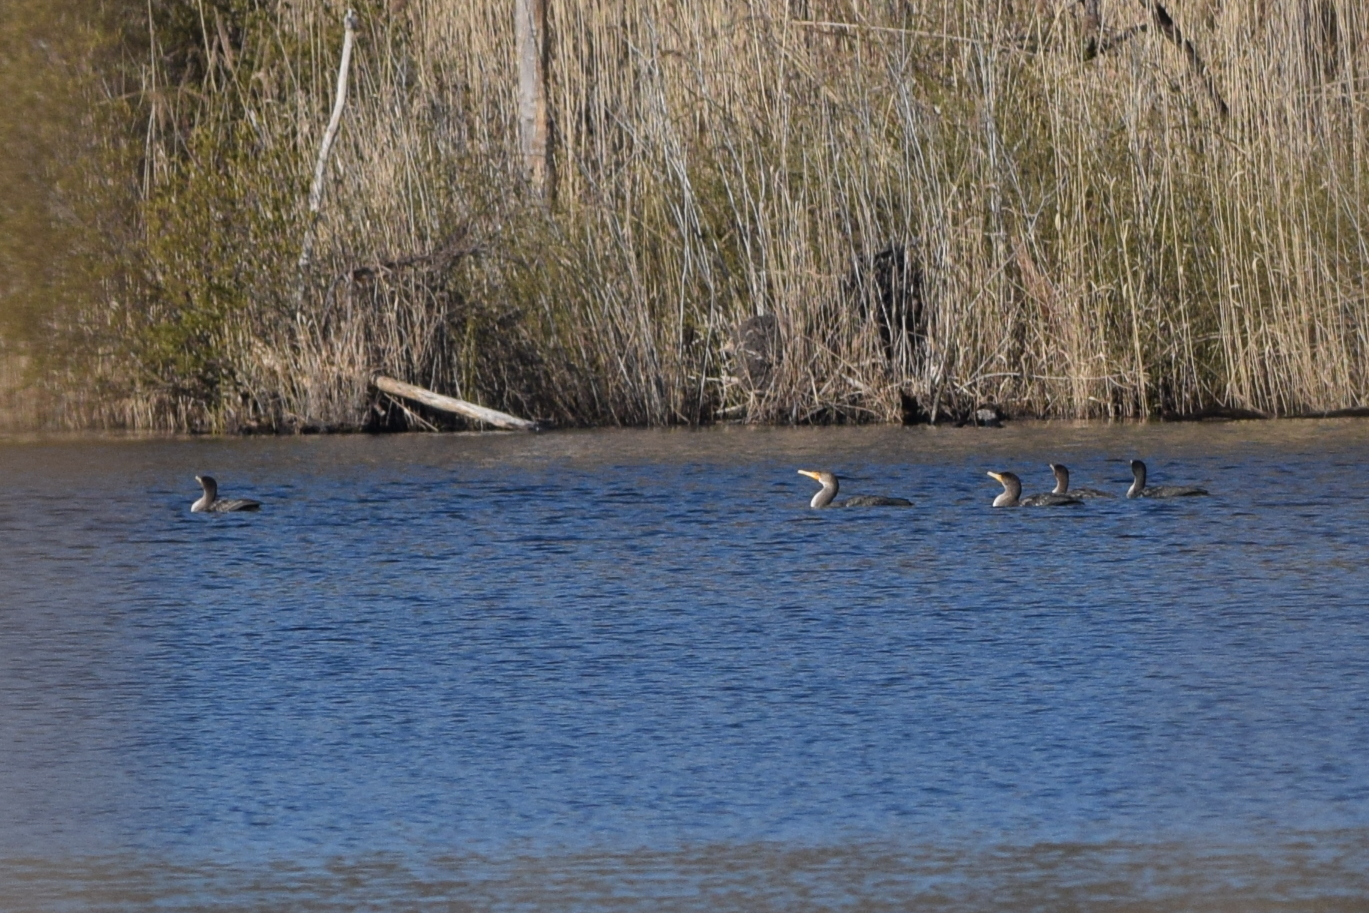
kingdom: Animalia
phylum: Chordata
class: Aves
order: Suliformes
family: Phalacrocoracidae
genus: Phalacrocorax
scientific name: Phalacrocorax auritus
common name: Double-crested cormorant
